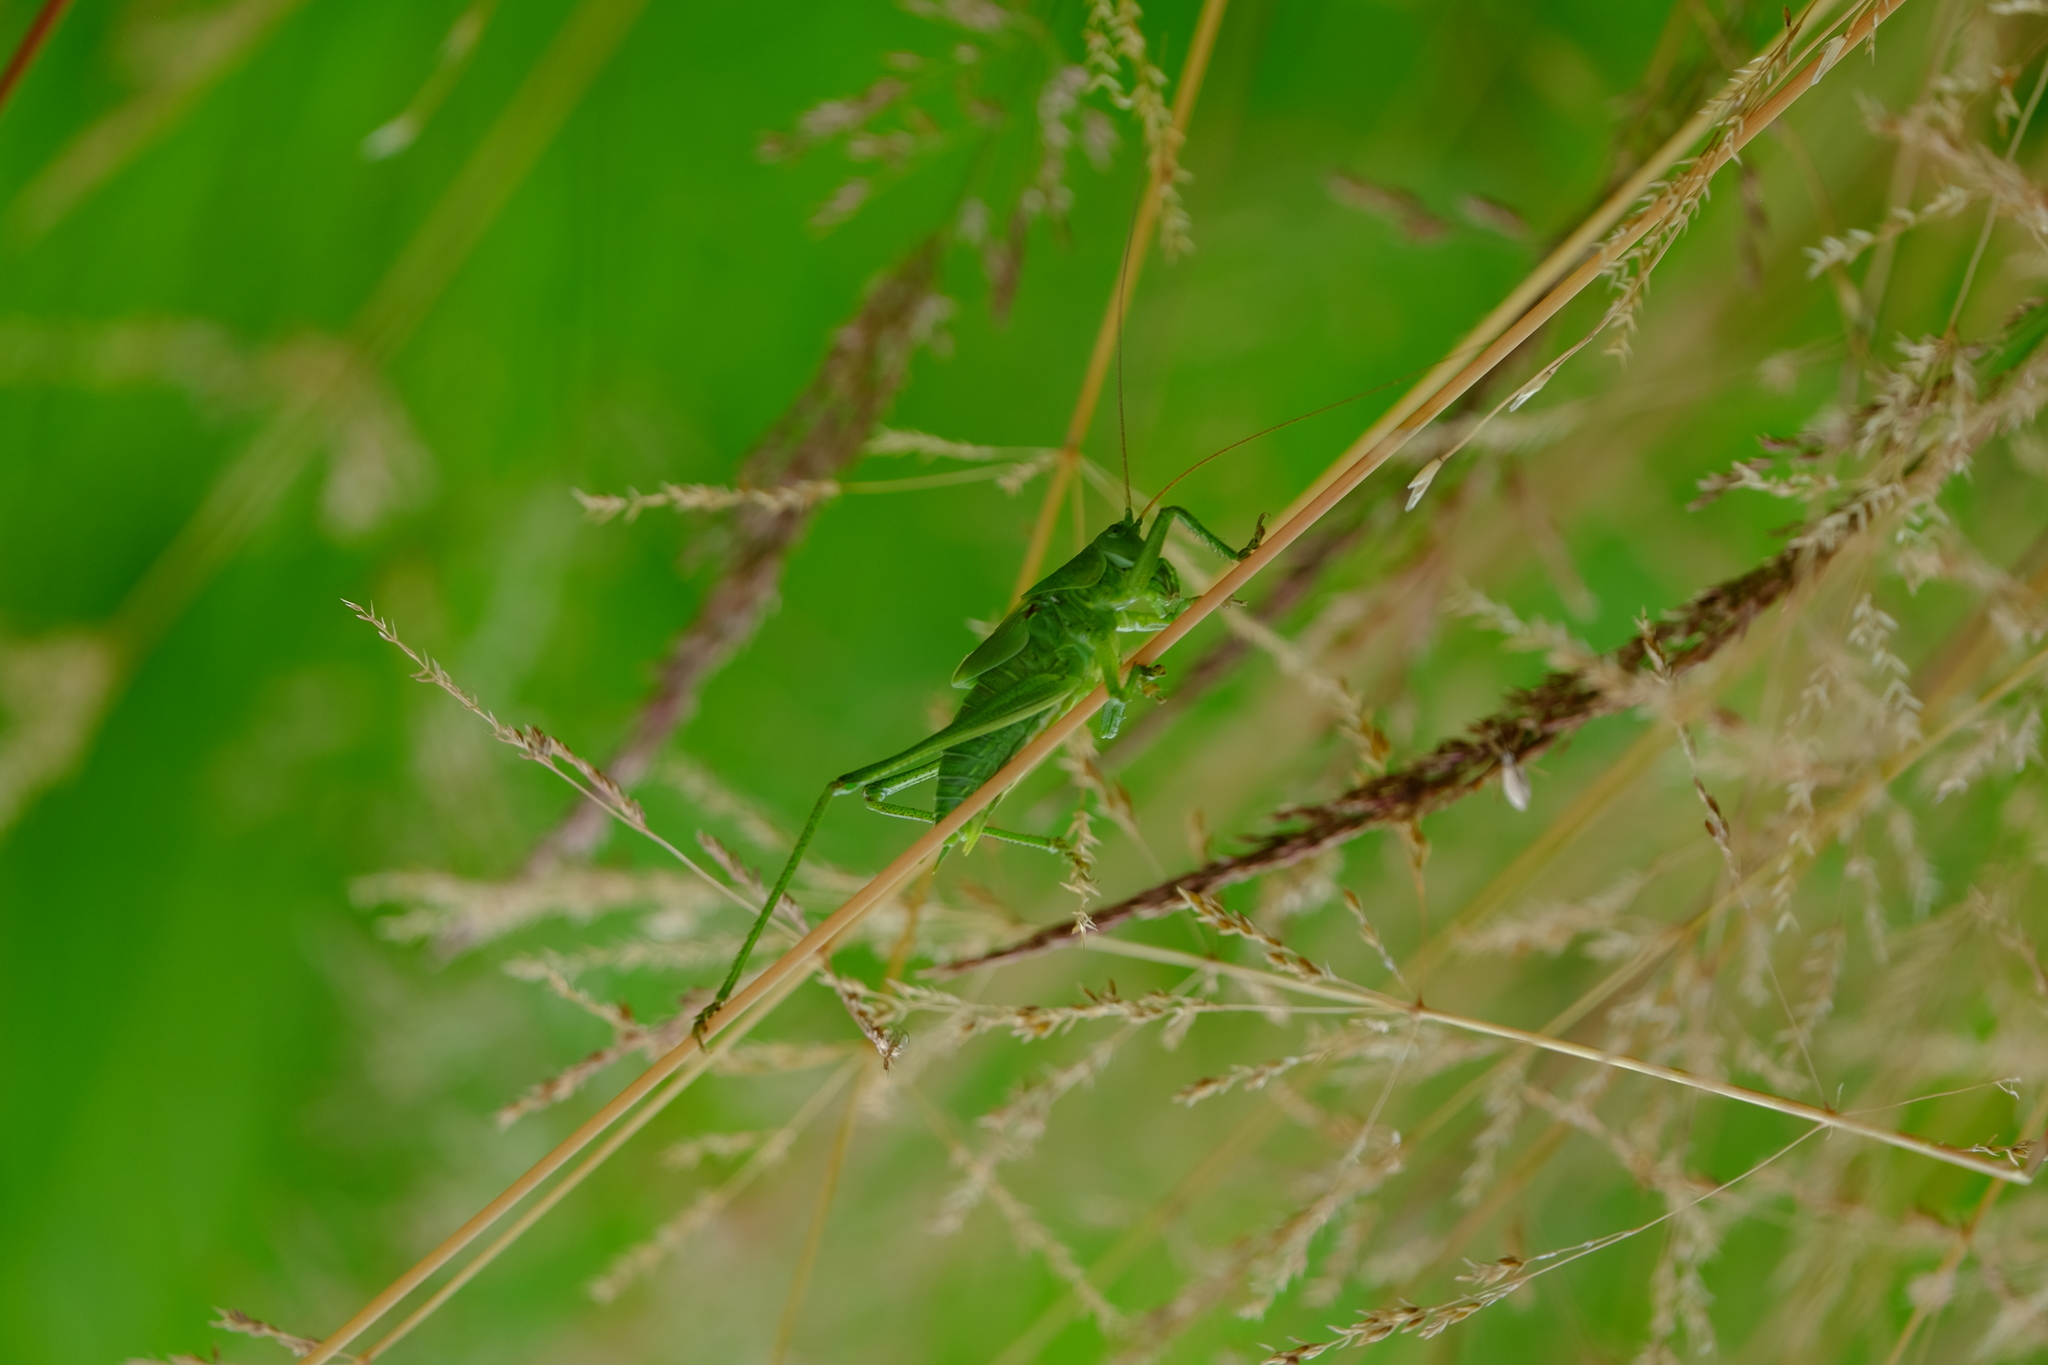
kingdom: Animalia
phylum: Arthropoda
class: Insecta
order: Orthoptera
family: Tettigoniidae
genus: Tettigonia
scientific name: Tettigonia viridissima
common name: Great green bush-cricket
